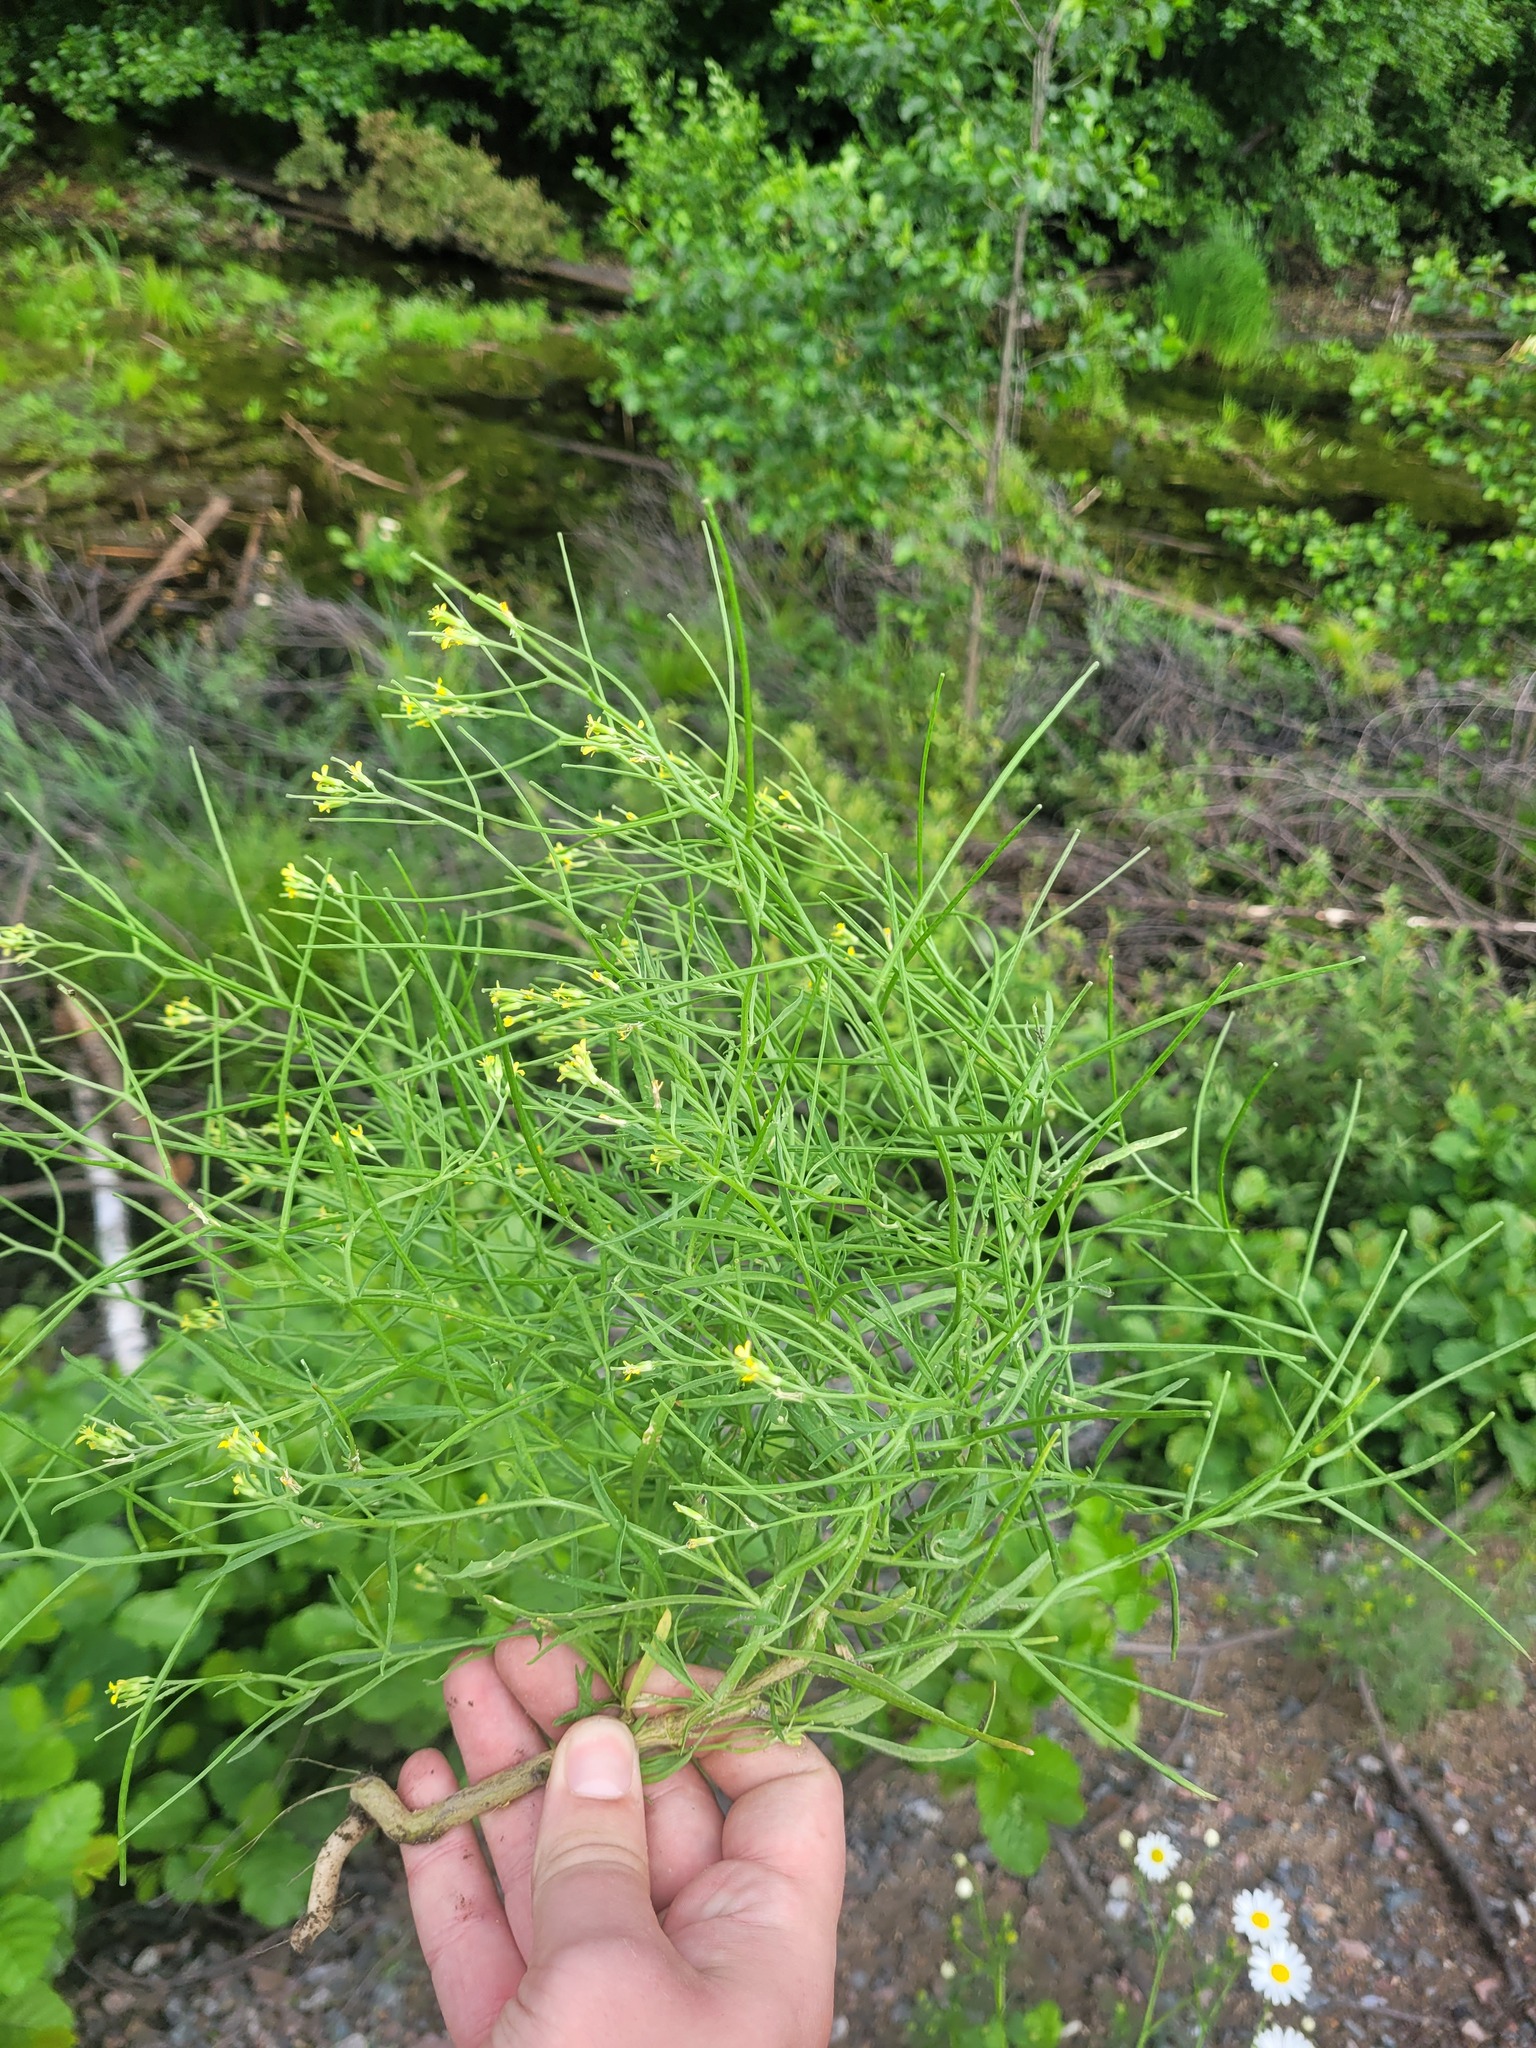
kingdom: Plantae
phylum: Tracheophyta
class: Magnoliopsida
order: Brassicales
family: Brassicaceae
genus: Erysimum
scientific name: Erysimum repandum
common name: Spreading wallflower
